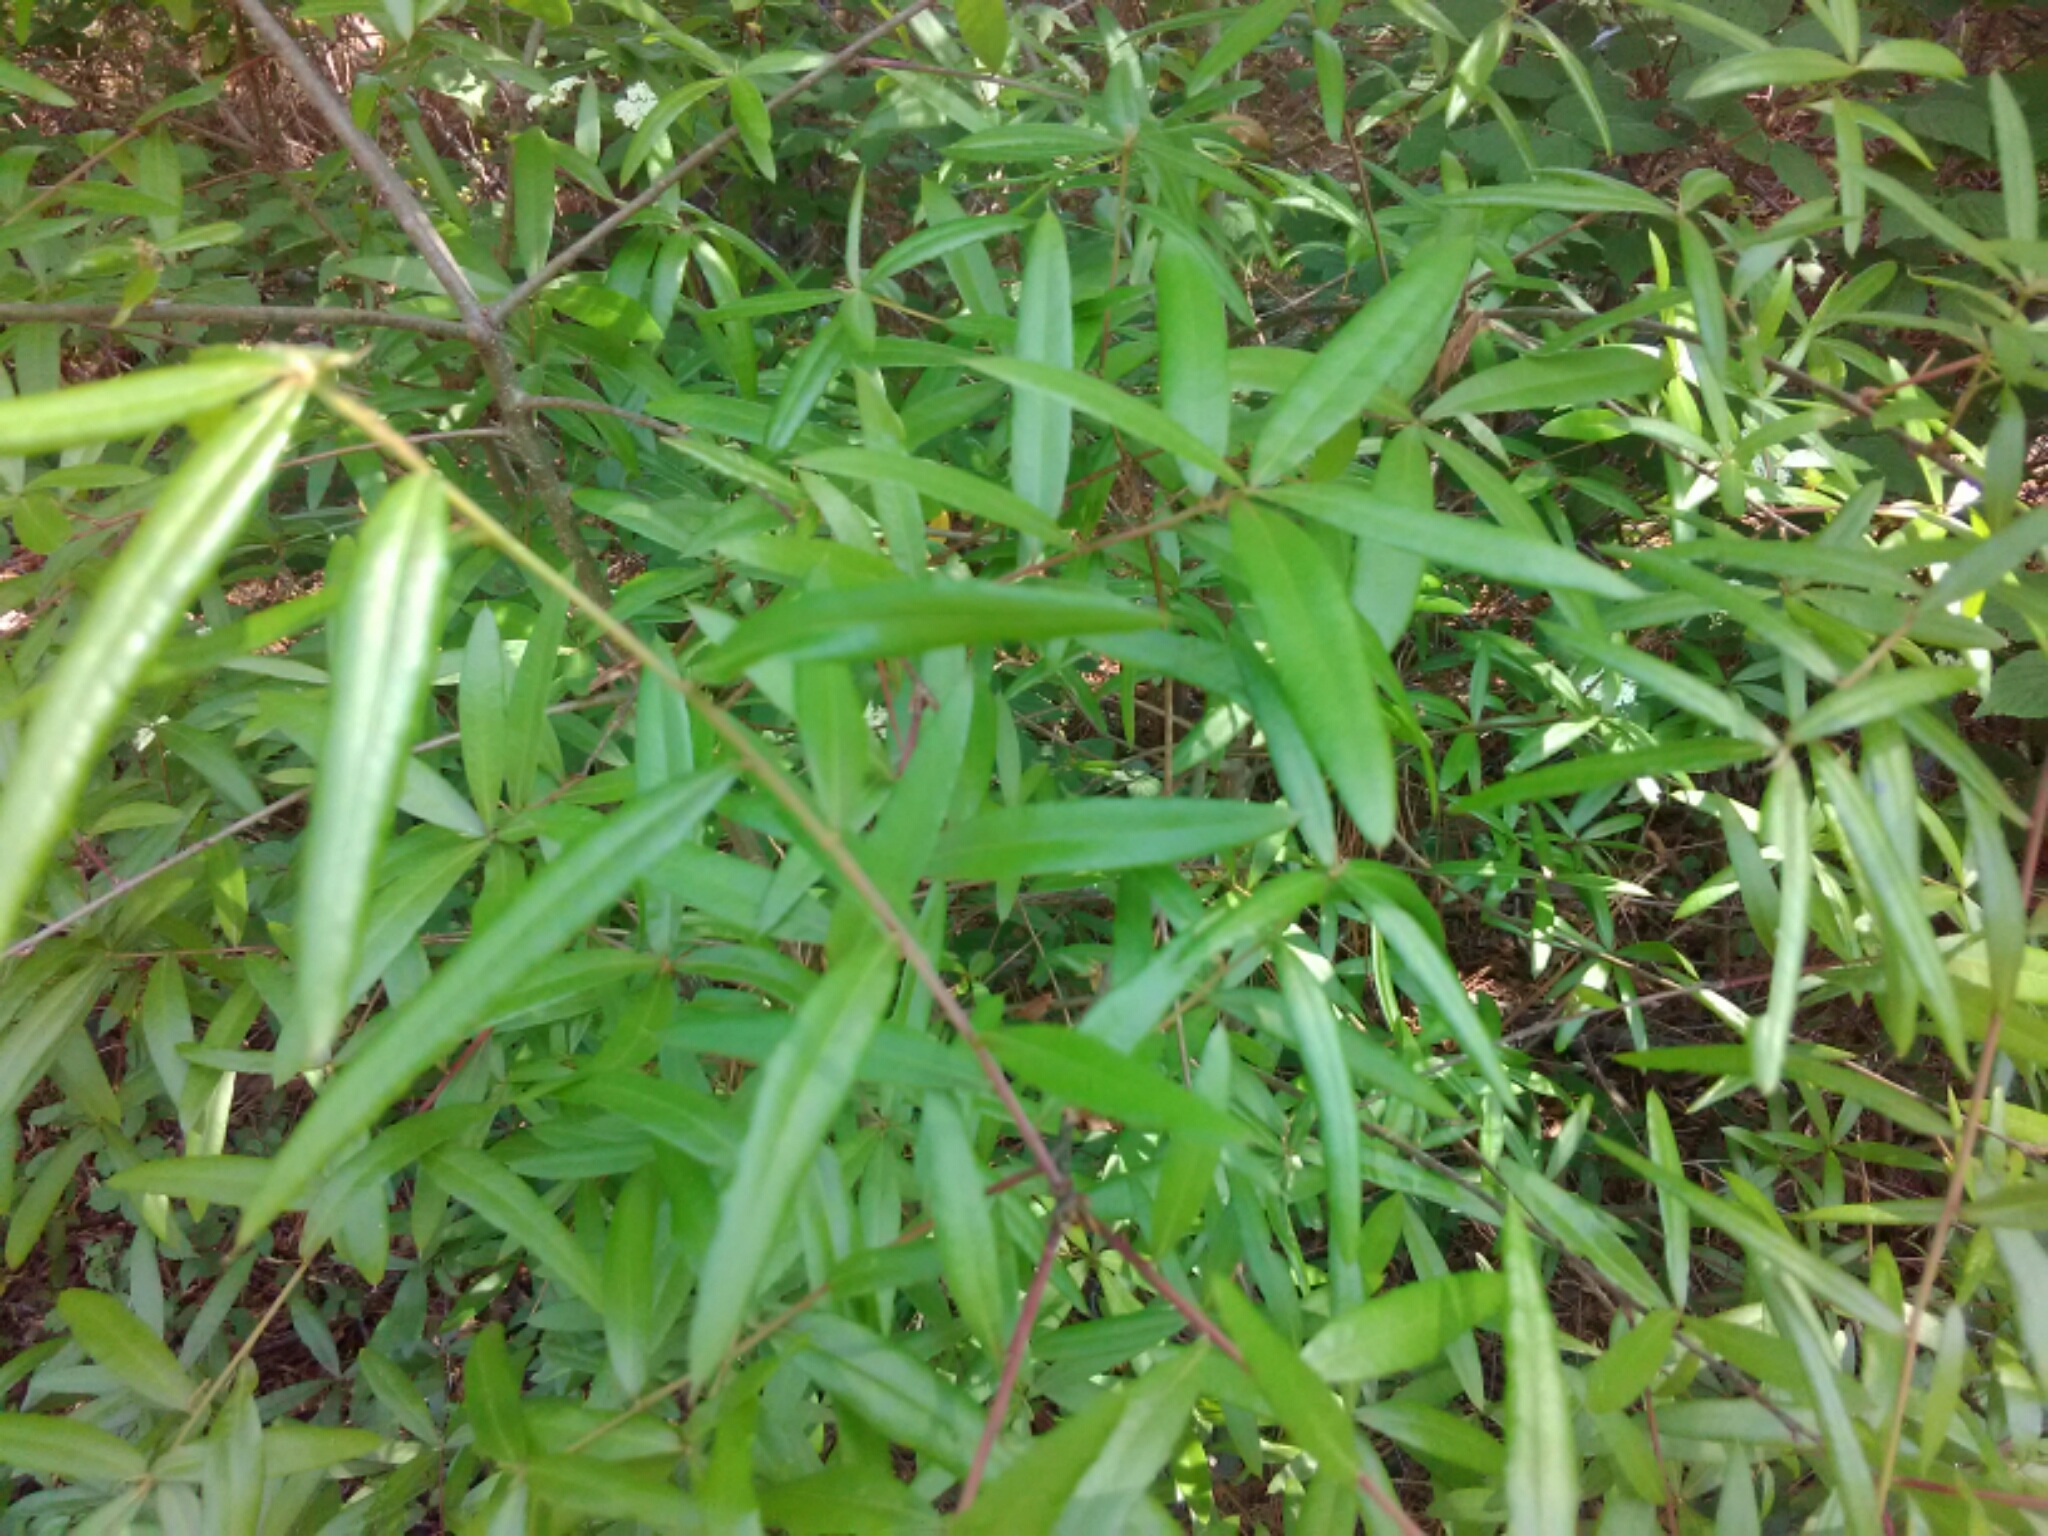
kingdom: Plantae
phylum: Tracheophyta
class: Magnoliopsida
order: Fagales
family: Fagaceae
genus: Quercus
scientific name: Quercus phellos
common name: Willow oak
